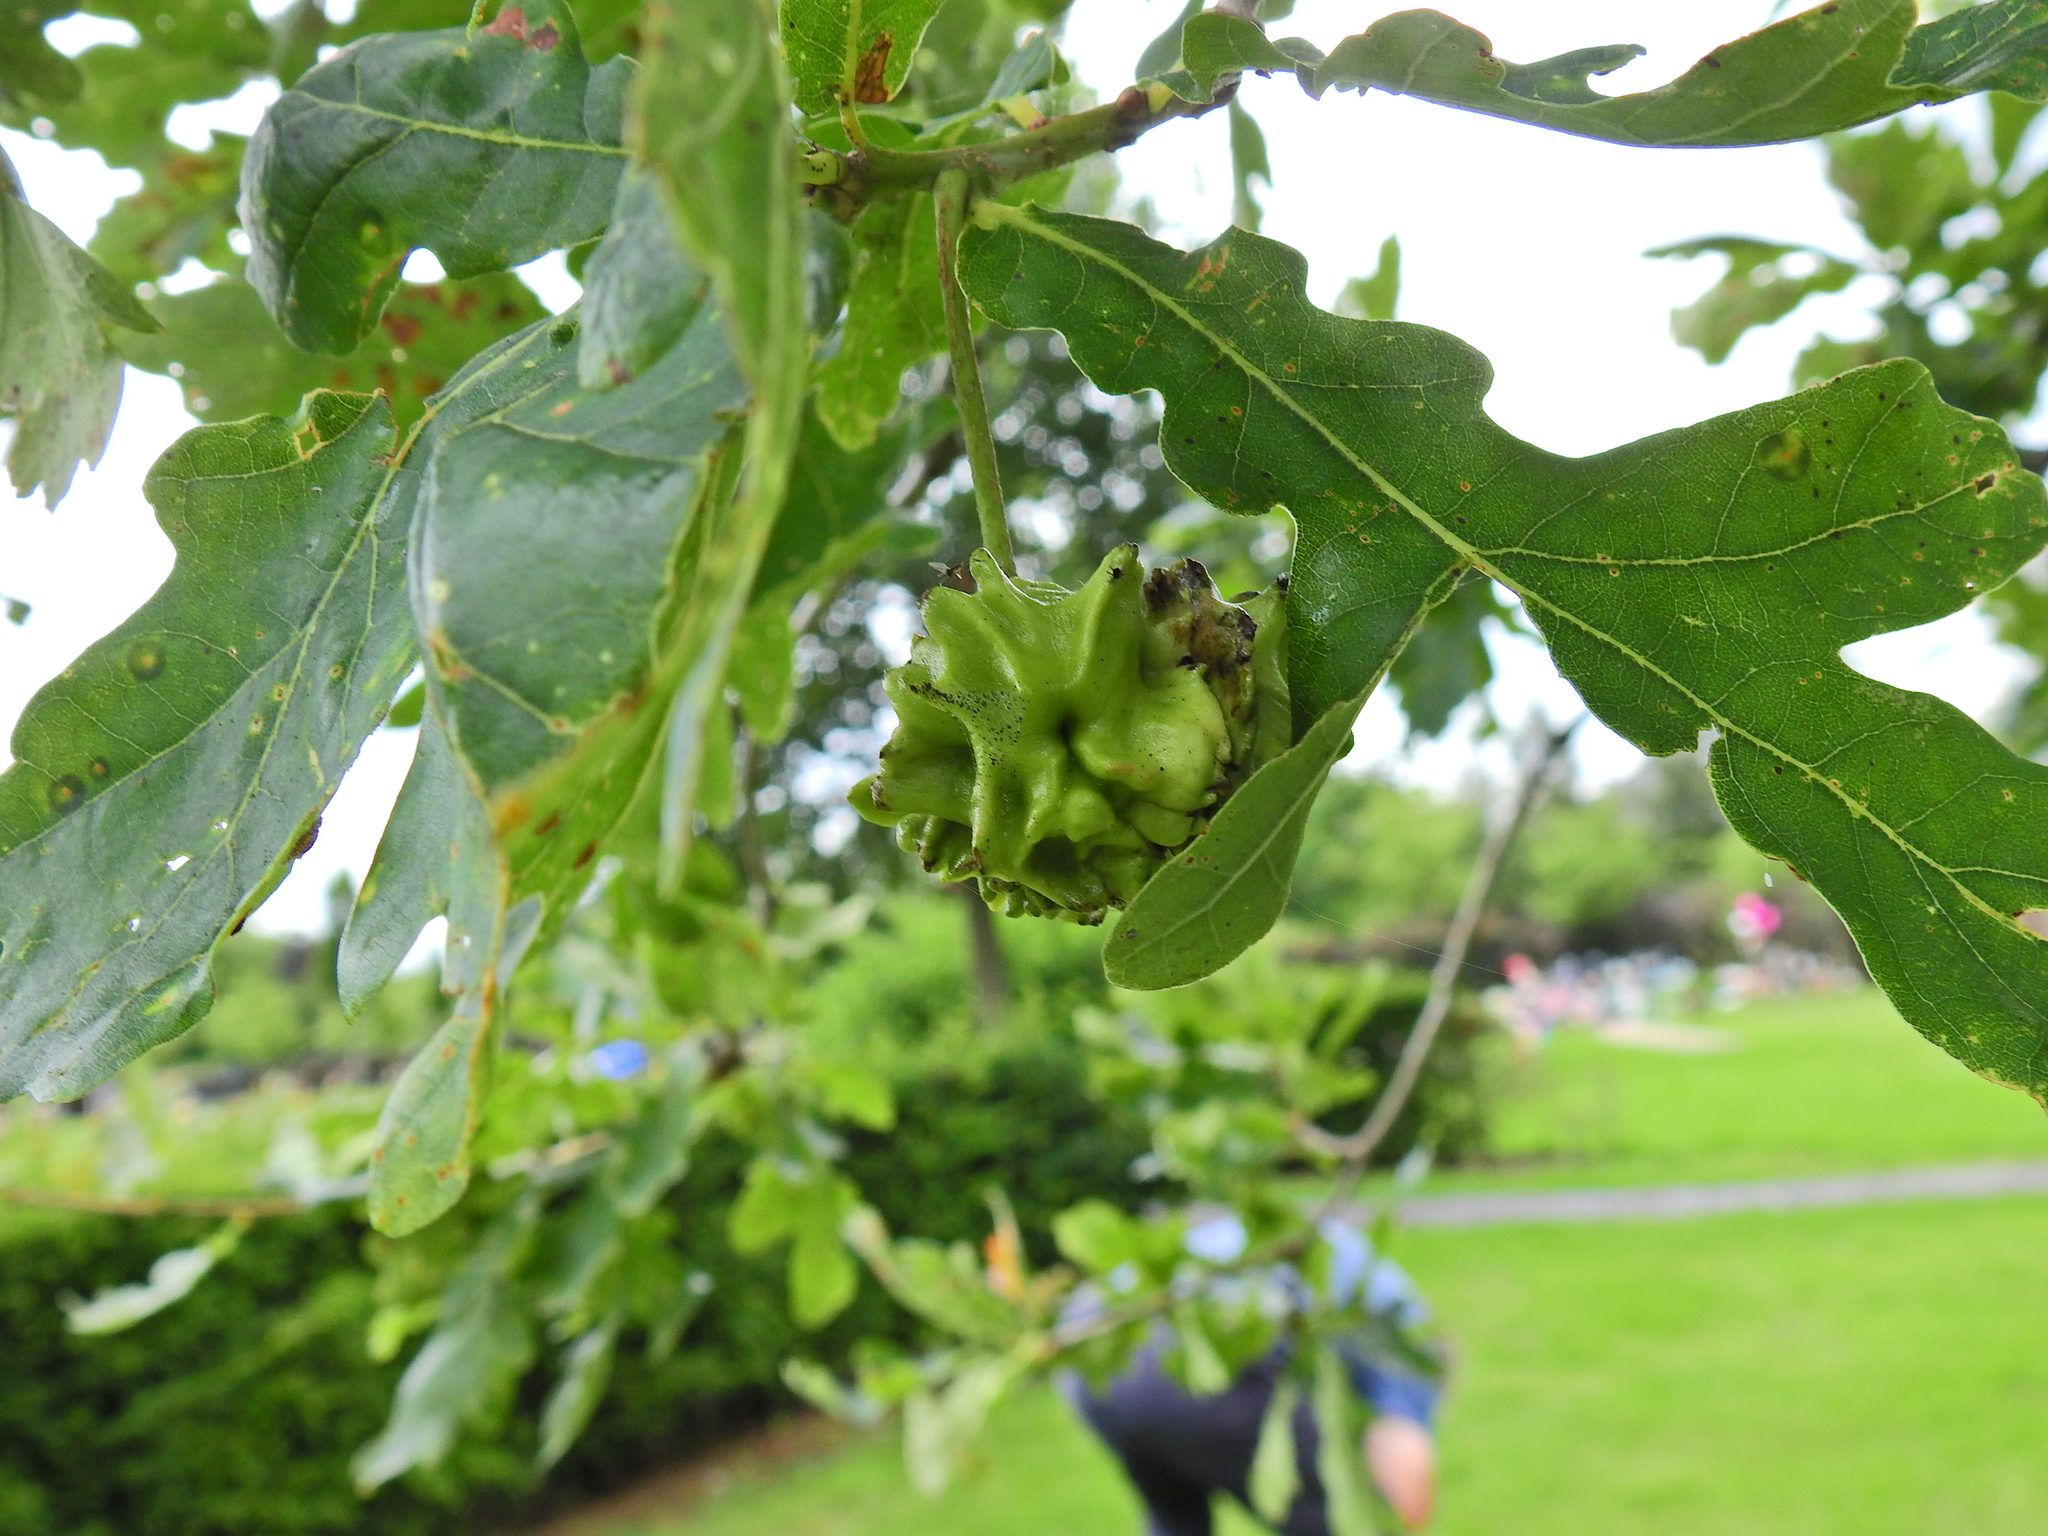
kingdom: Animalia
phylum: Arthropoda
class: Insecta
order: Hymenoptera
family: Cynipidae
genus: Andricus
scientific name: Andricus quercuscalicis
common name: Knopper gall
